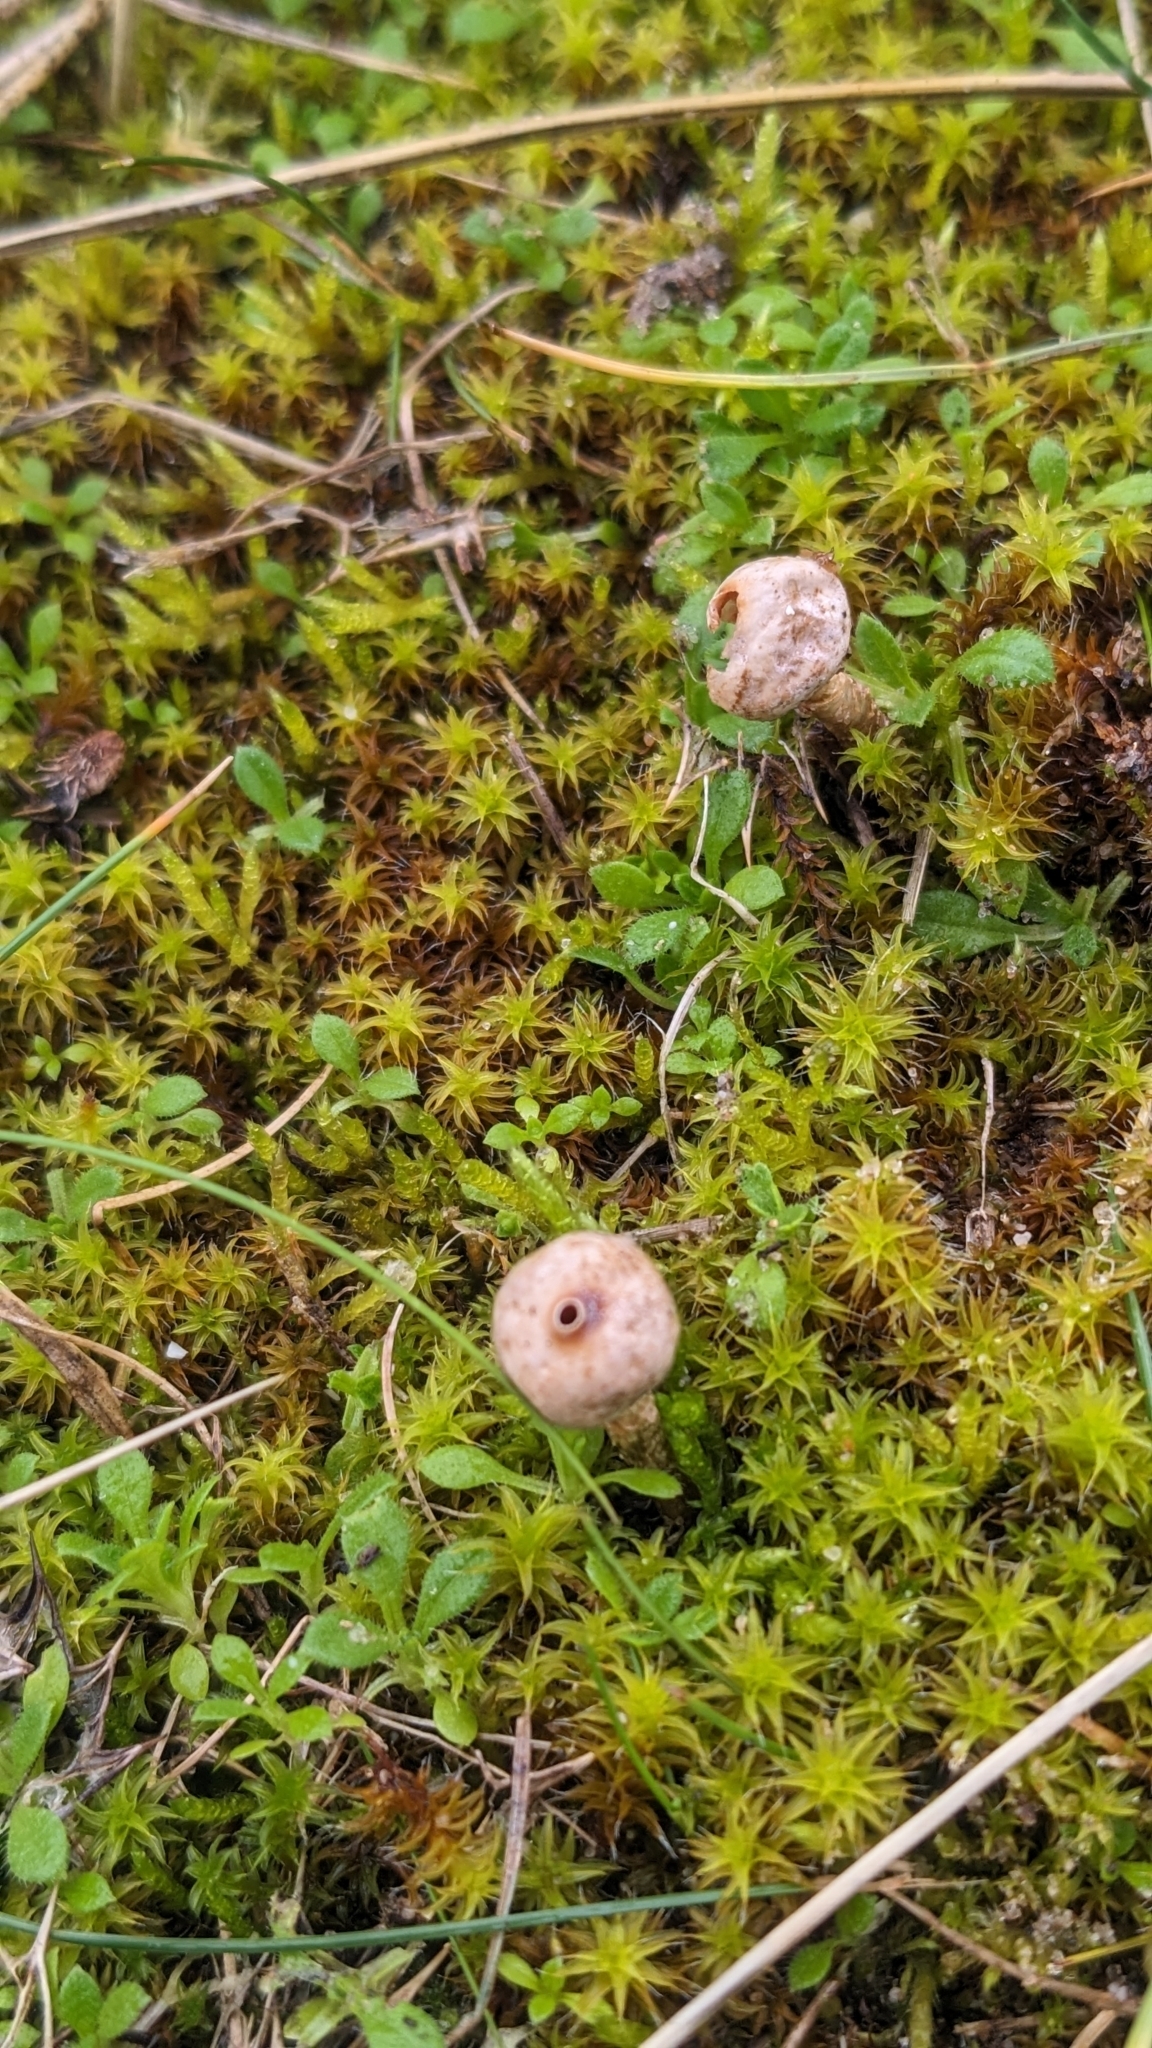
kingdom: Fungi
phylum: Basidiomycota
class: Agaricomycetes
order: Agaricales
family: Agaricaceae
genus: Tulostoma
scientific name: Tulostoma brumale
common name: Winter stalk puffball
